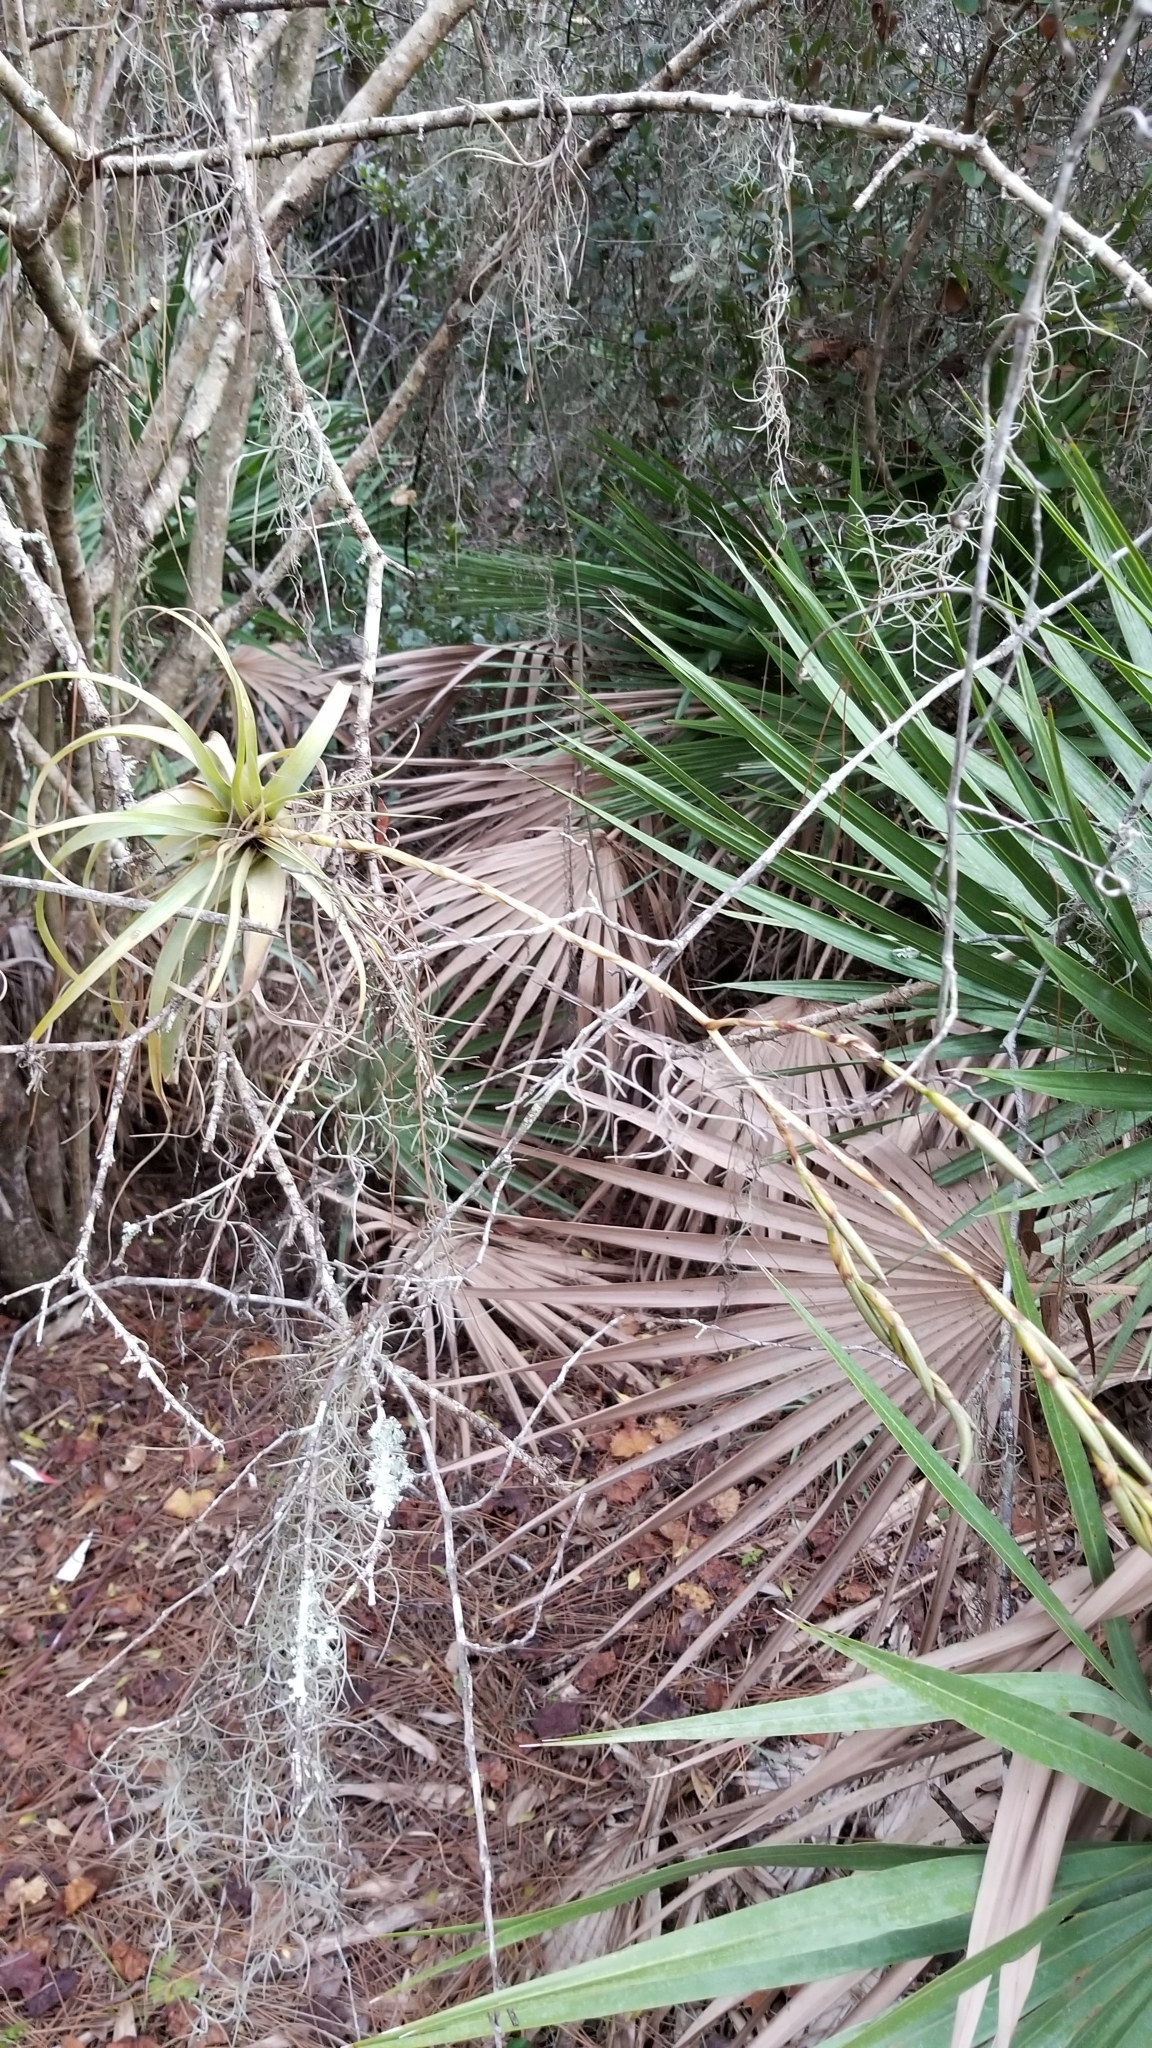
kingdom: Plantae
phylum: Tracheophyta
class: Liliopsida
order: Poales
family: Bromeliaceae
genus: Tillandsia
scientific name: Tillandsia utriculata
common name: Wild pine
